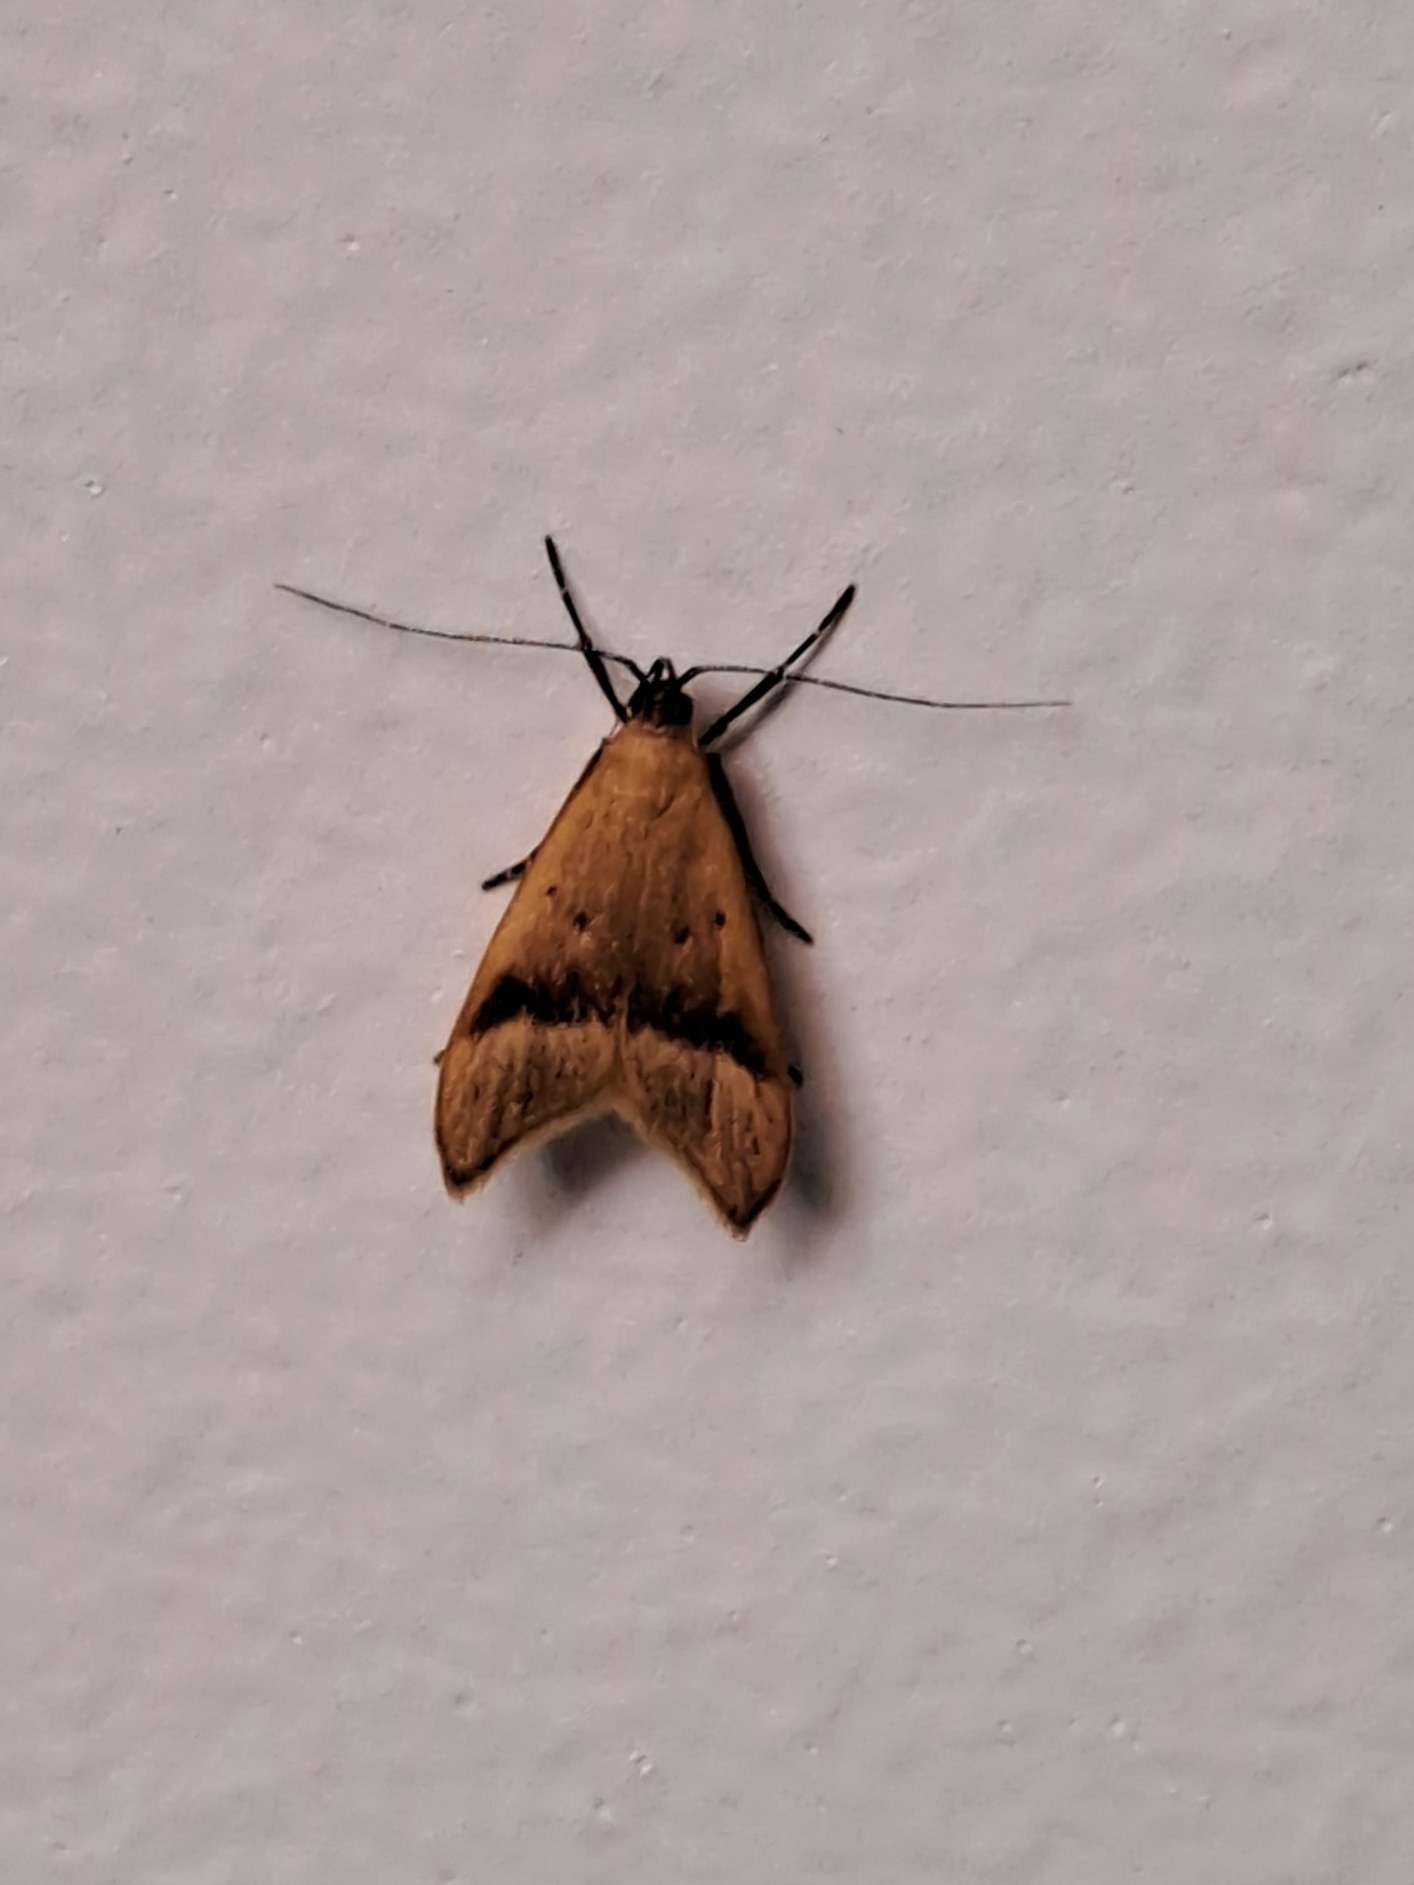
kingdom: Animalia
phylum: Arthropoda
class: Insecta
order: Lepidoptera
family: Oecophoridae
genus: Gymnobathra
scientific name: Gymnobathra hyetodes
